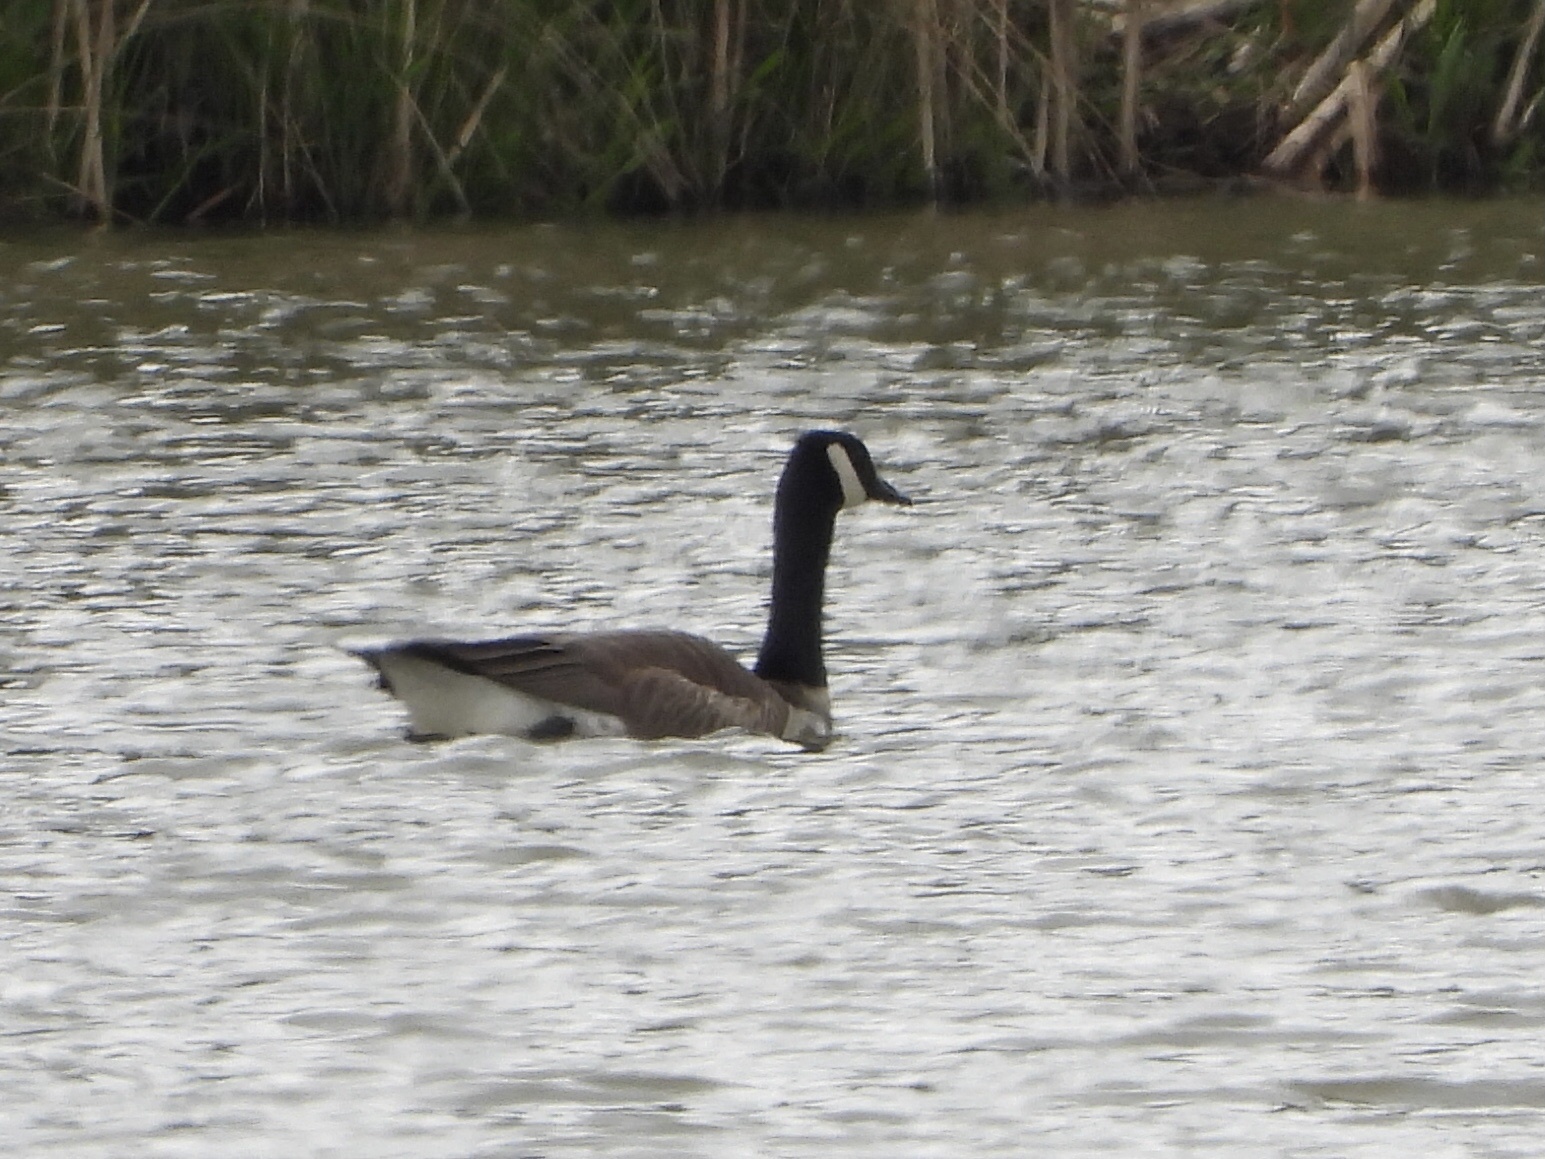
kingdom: Animalia
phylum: Chordata
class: Aves
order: Anseriformes
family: Anatidae
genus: Branta
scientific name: Branta canadensis
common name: Canada goose
